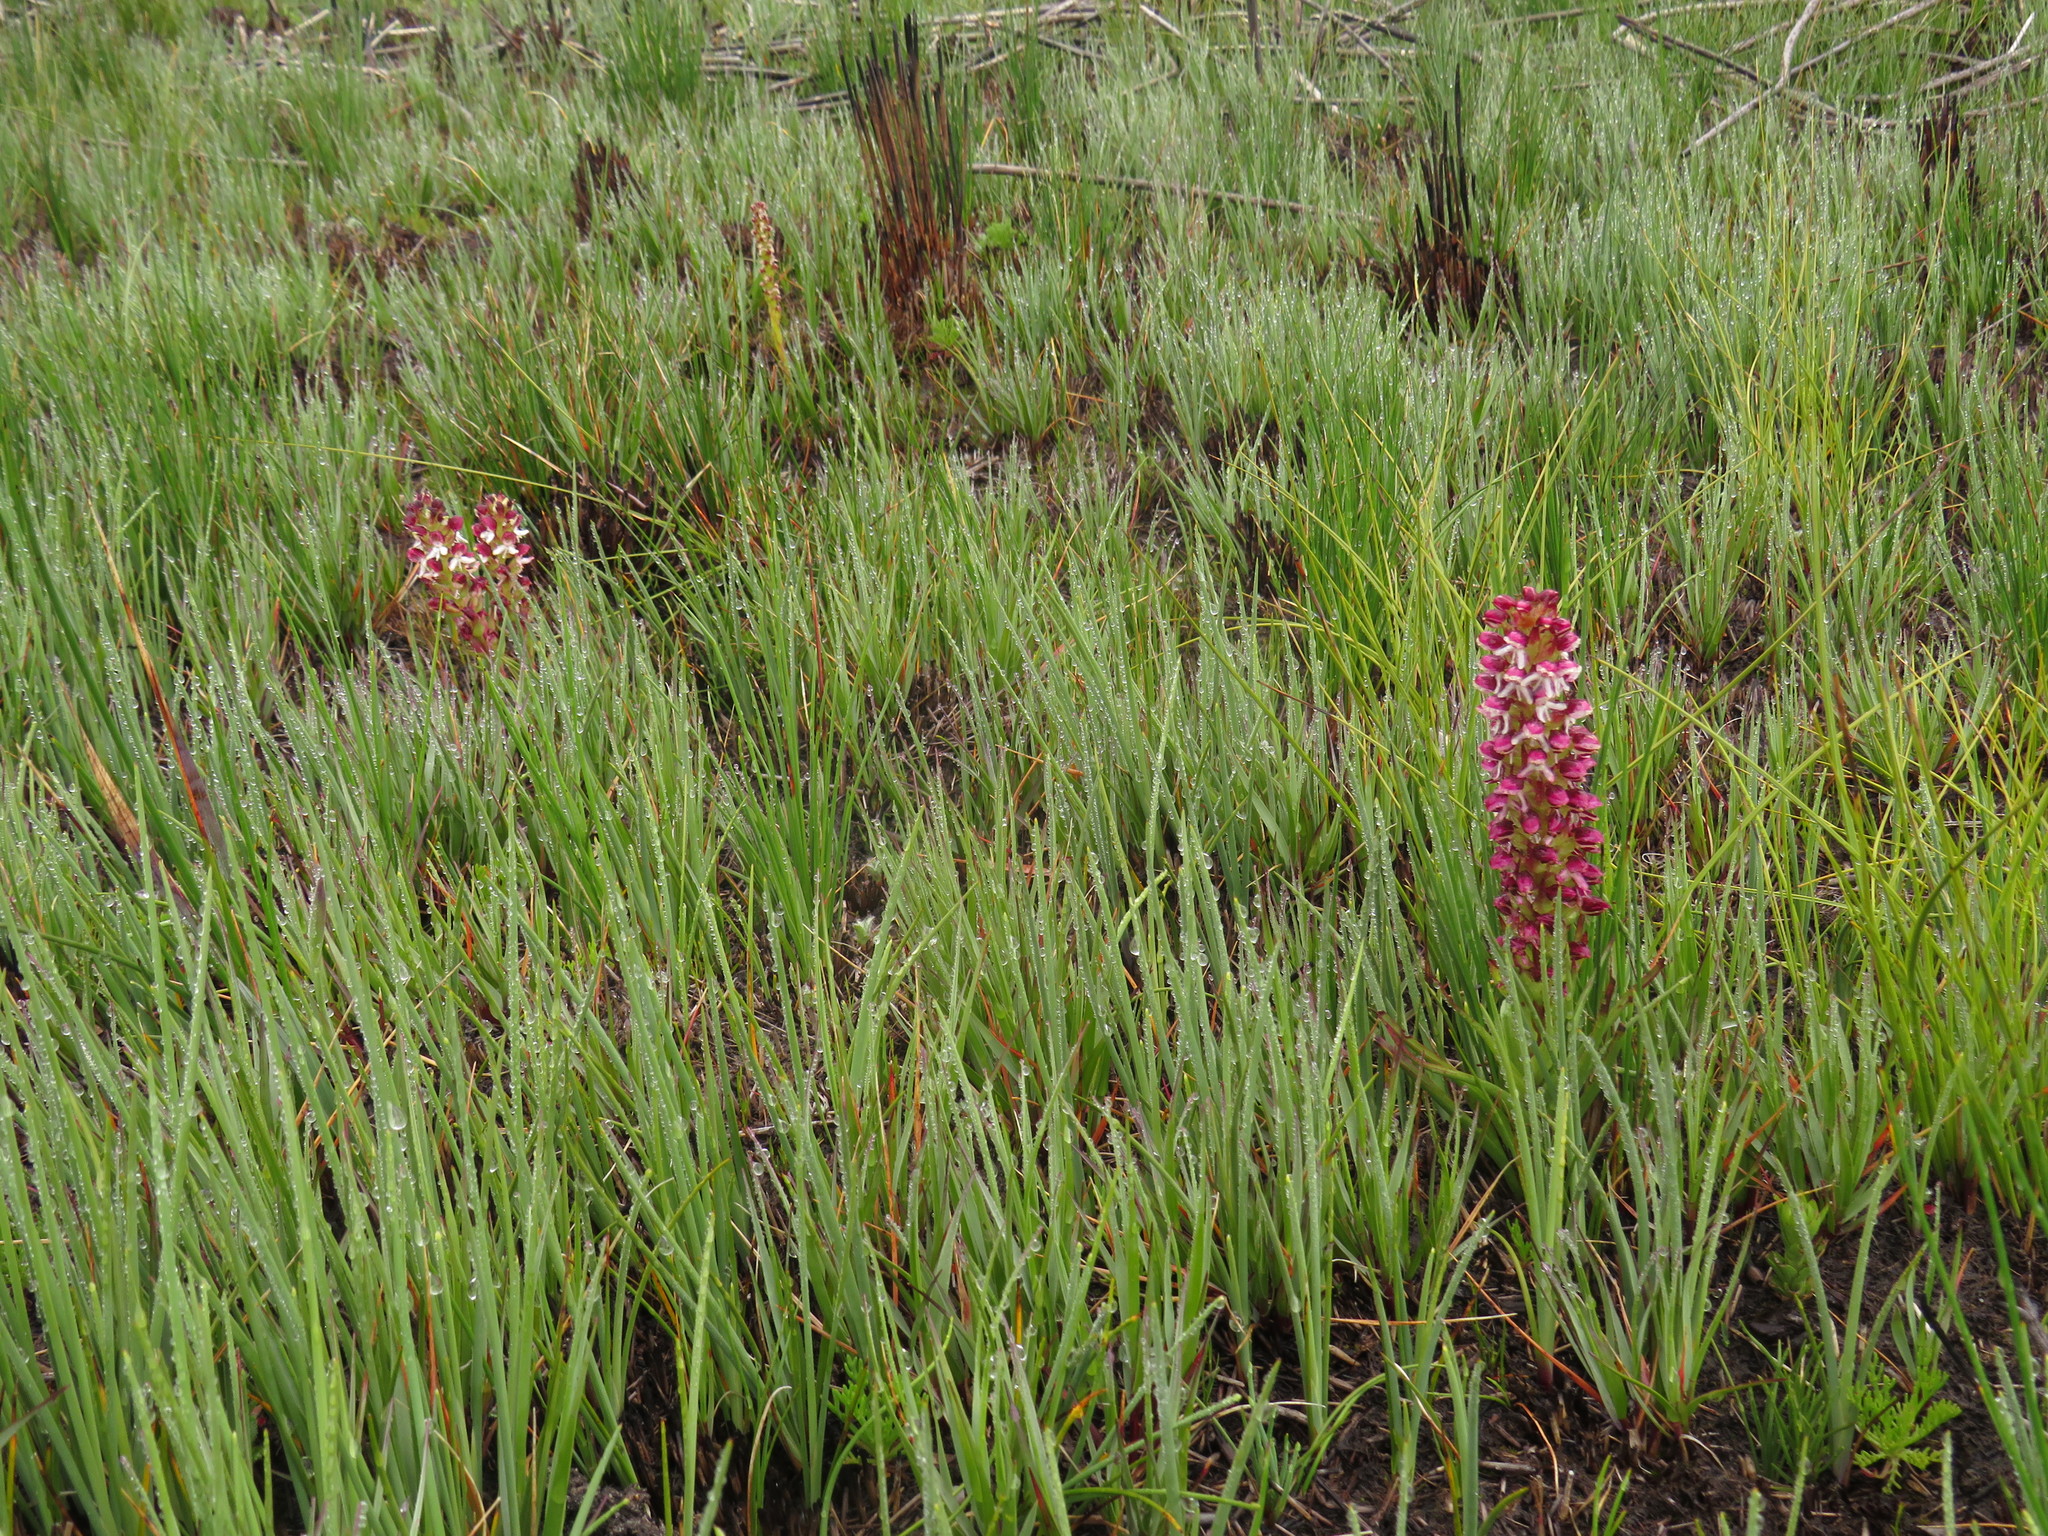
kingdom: Plantae
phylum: Tracheophyta
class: Liliopsida
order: Asparagales
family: Orchidaceae
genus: Disa
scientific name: Disa
